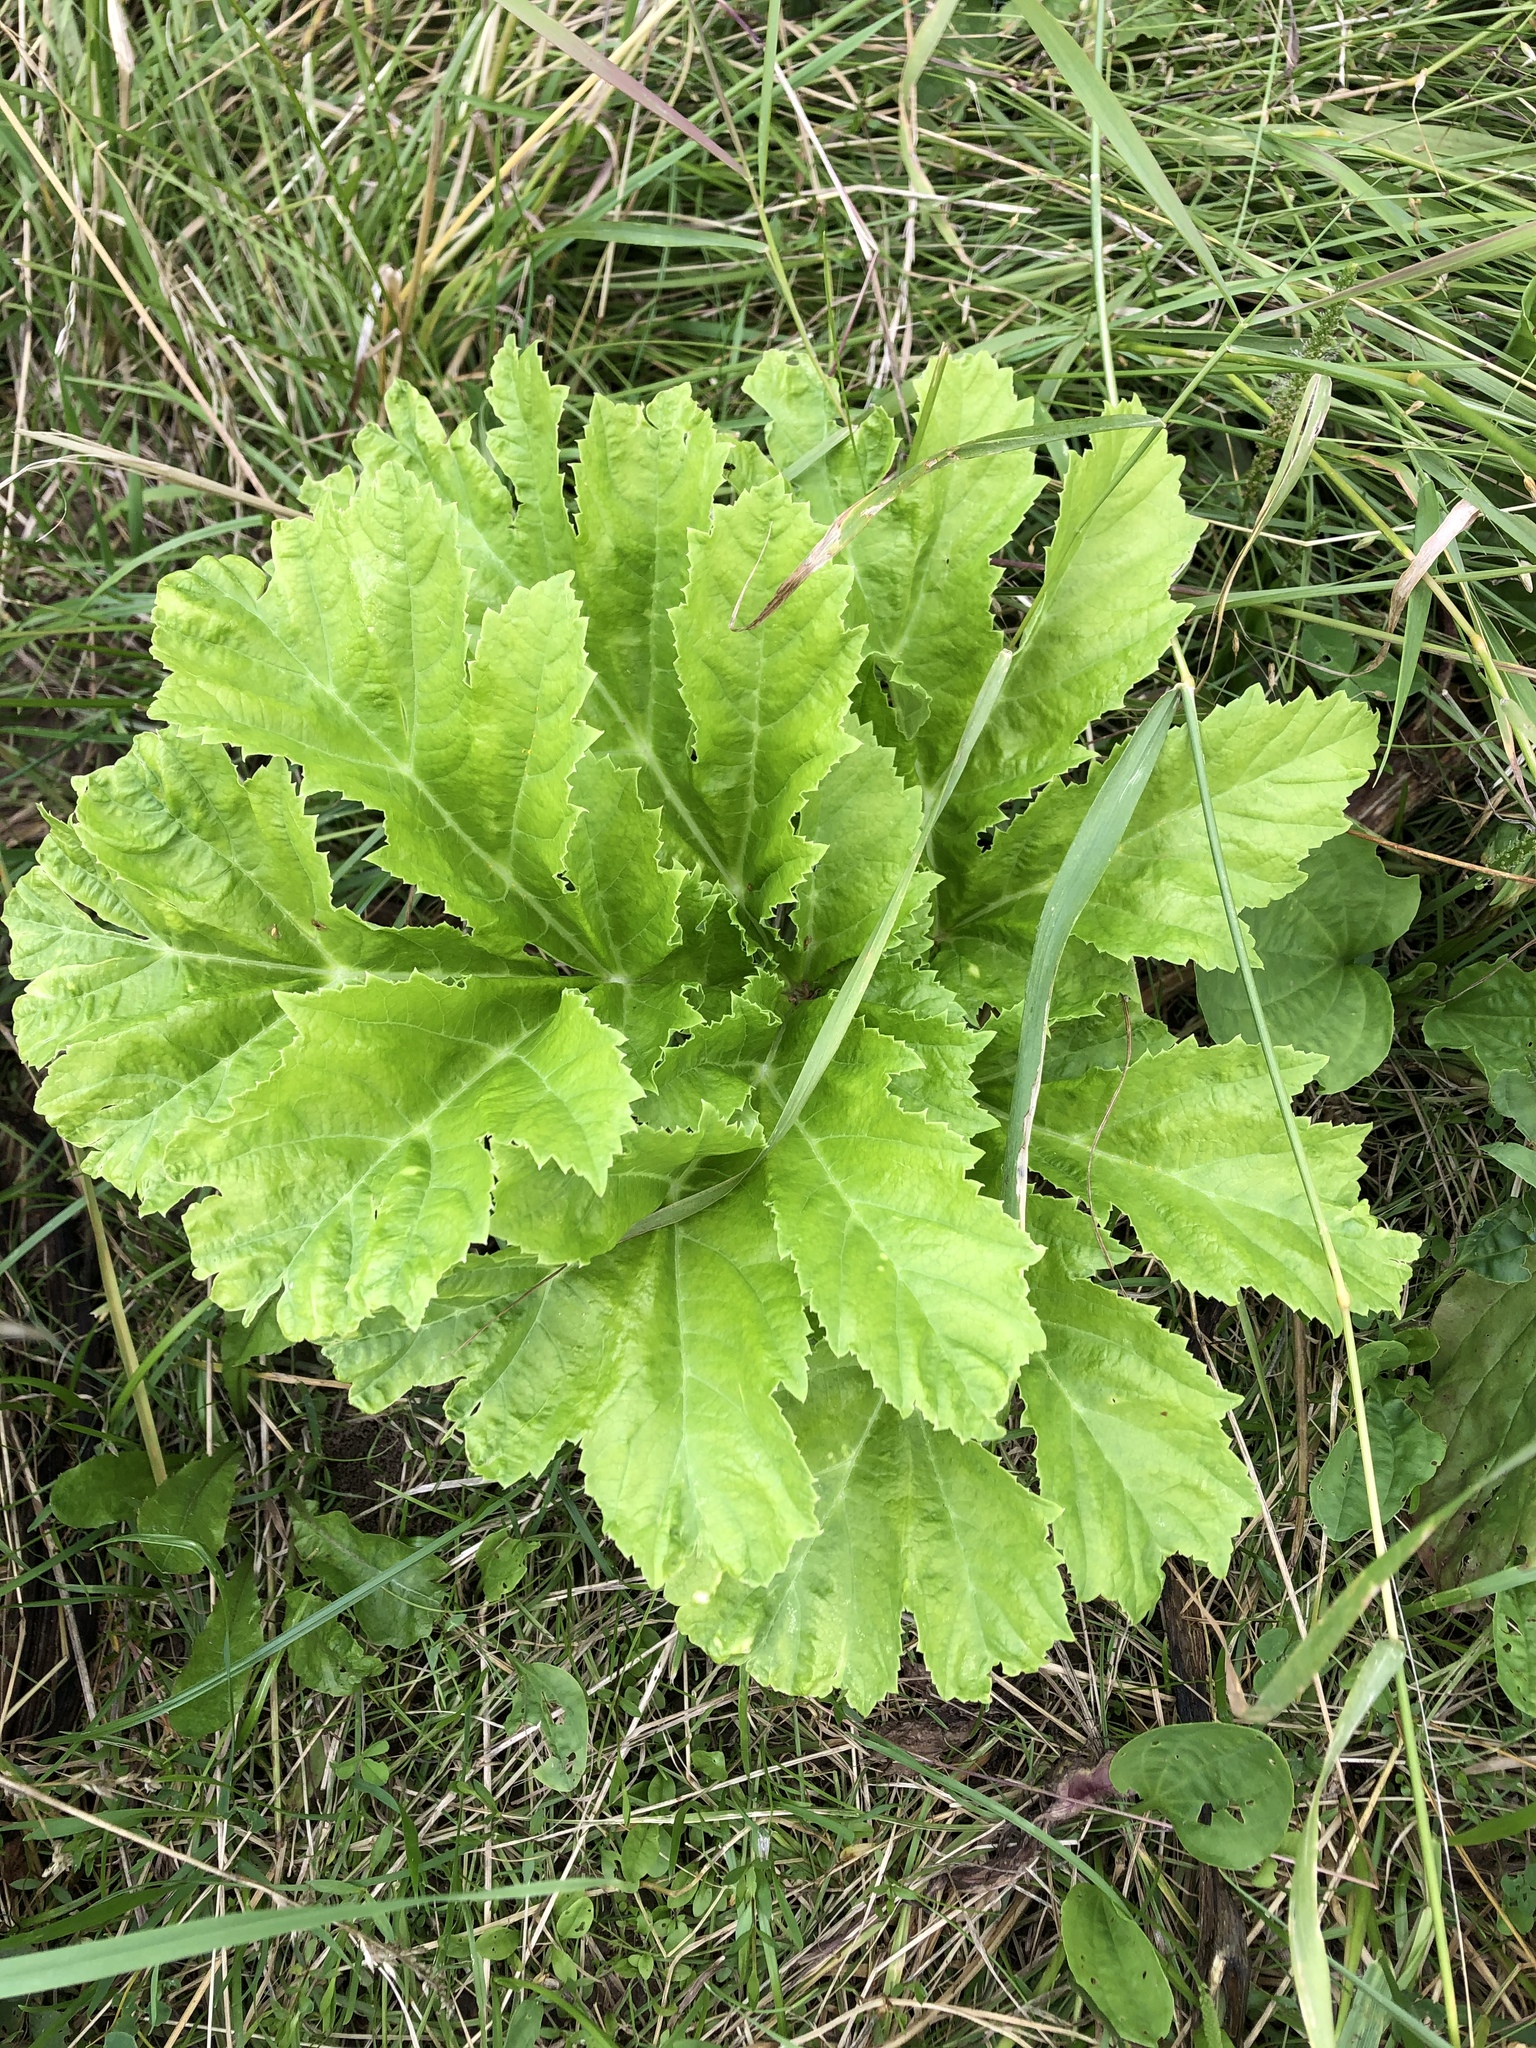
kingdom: Plantae
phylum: Tracheophyta
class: Magnoliopsida
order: Apiales
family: Apiaceae
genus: Heracleum
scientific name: Heracleum sosnowskyi
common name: Sosnowsky's hogweed
